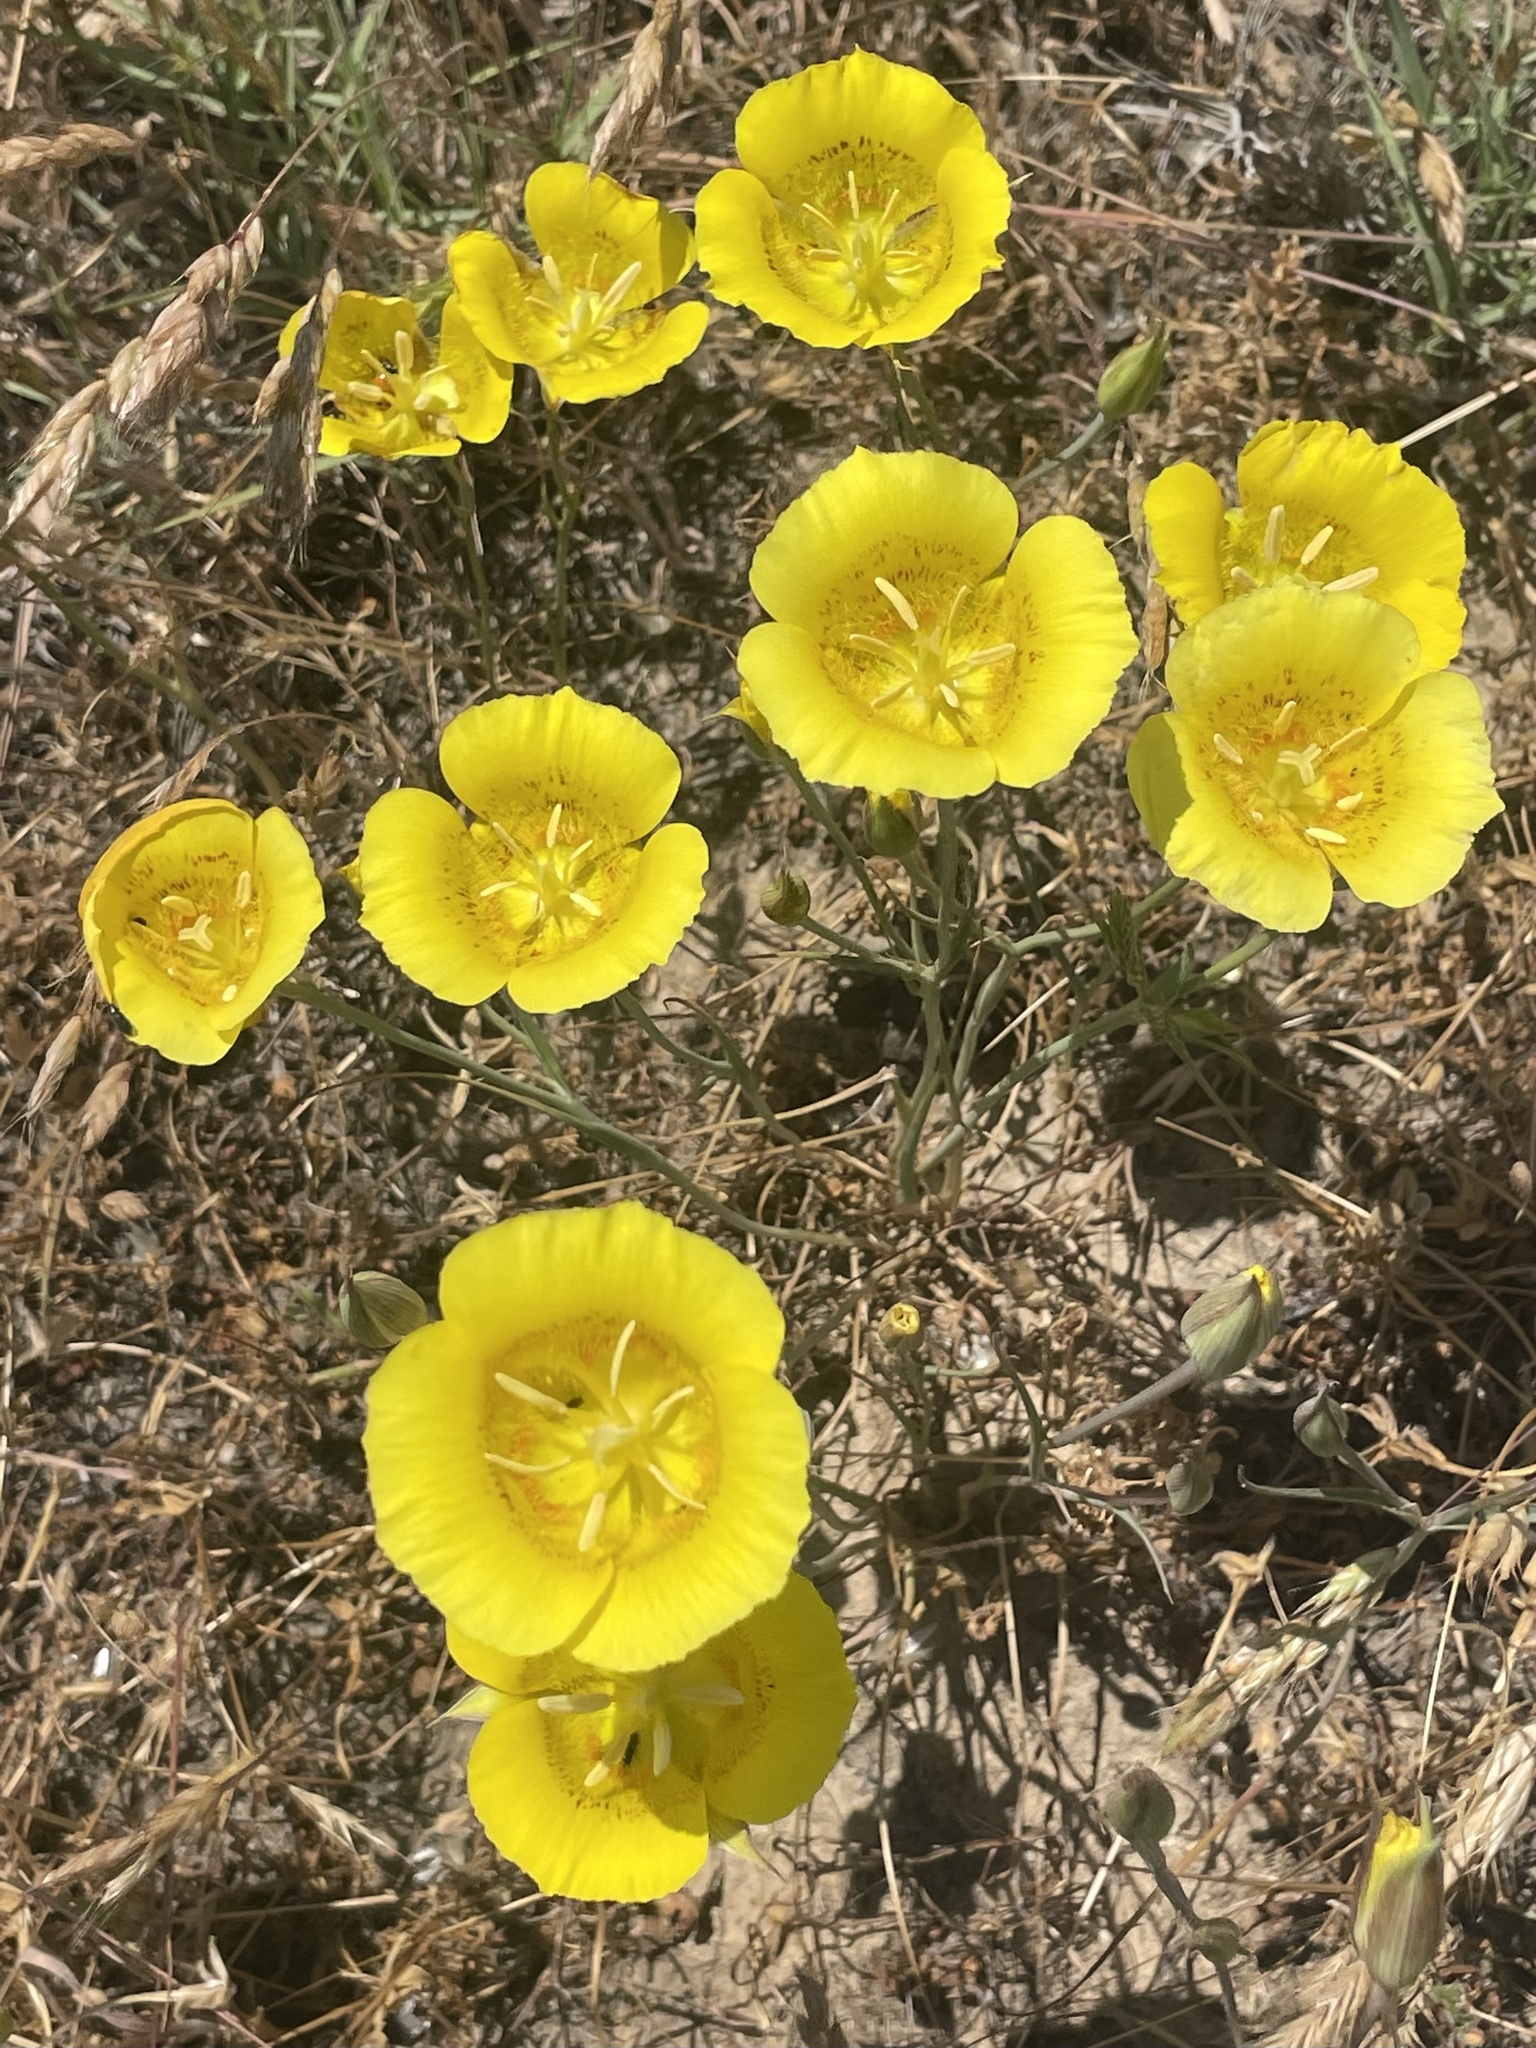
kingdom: Plantae
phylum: Tracheophyta
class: Liliopsida
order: Liliales
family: Liliaceae
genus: Calochortus
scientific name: Calochortus luteus
